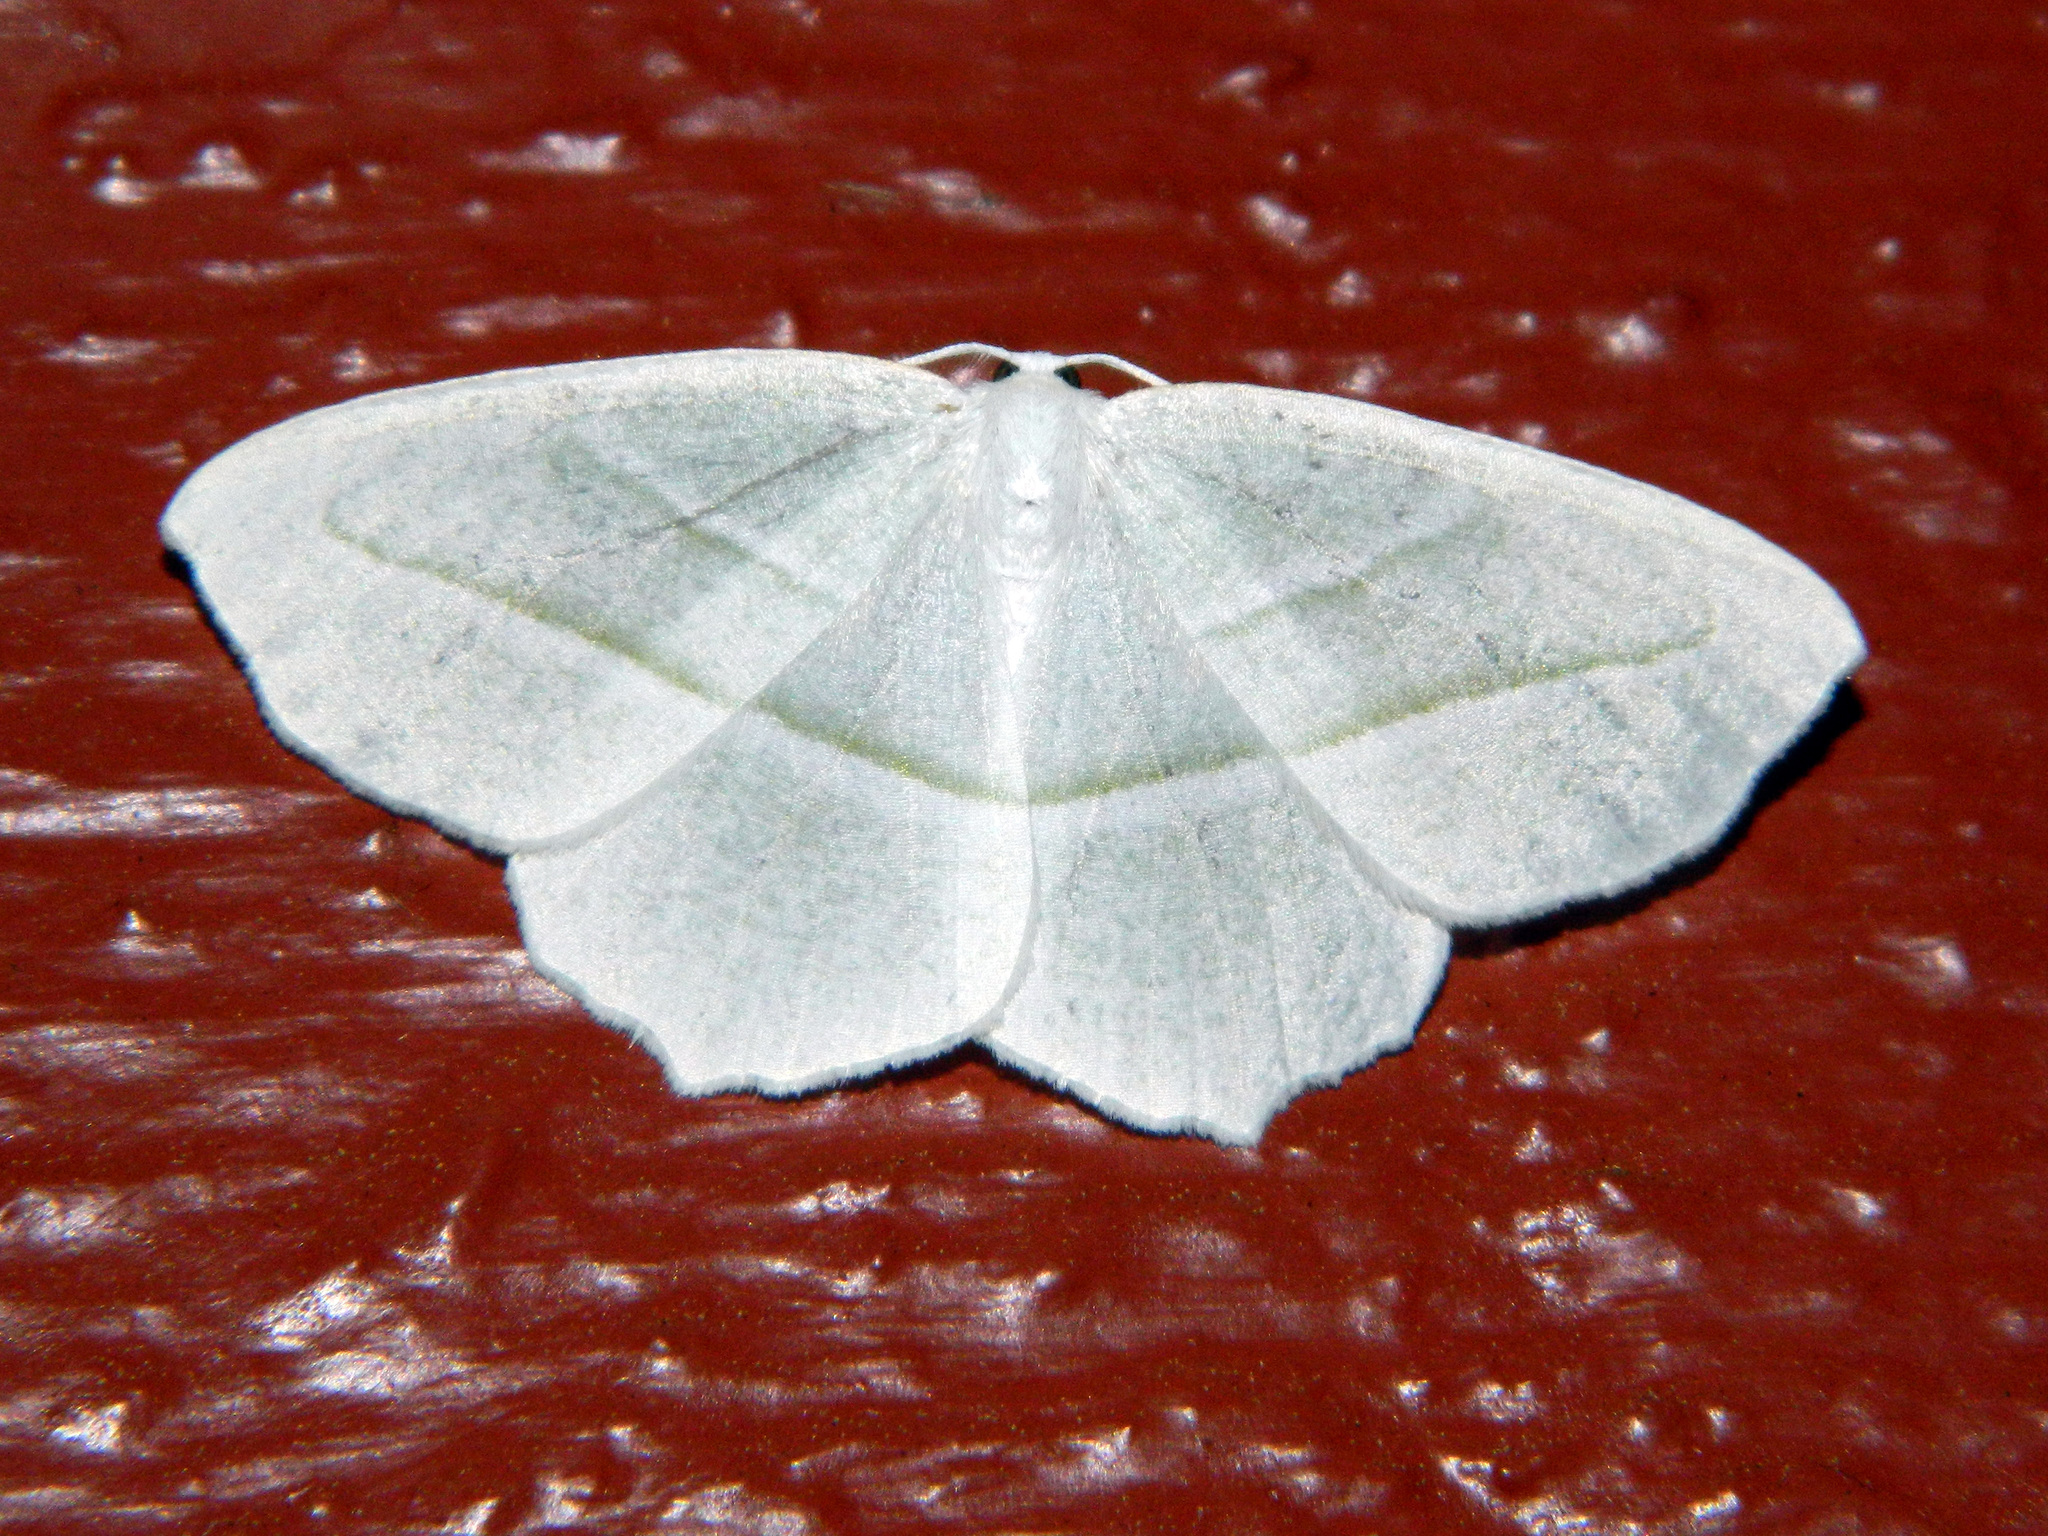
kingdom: Animalia
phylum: Arthropoda
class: Insecta
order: Lepidoptera
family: Geometridae
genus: Campaea
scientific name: Campaea perlata
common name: Fringed looper
